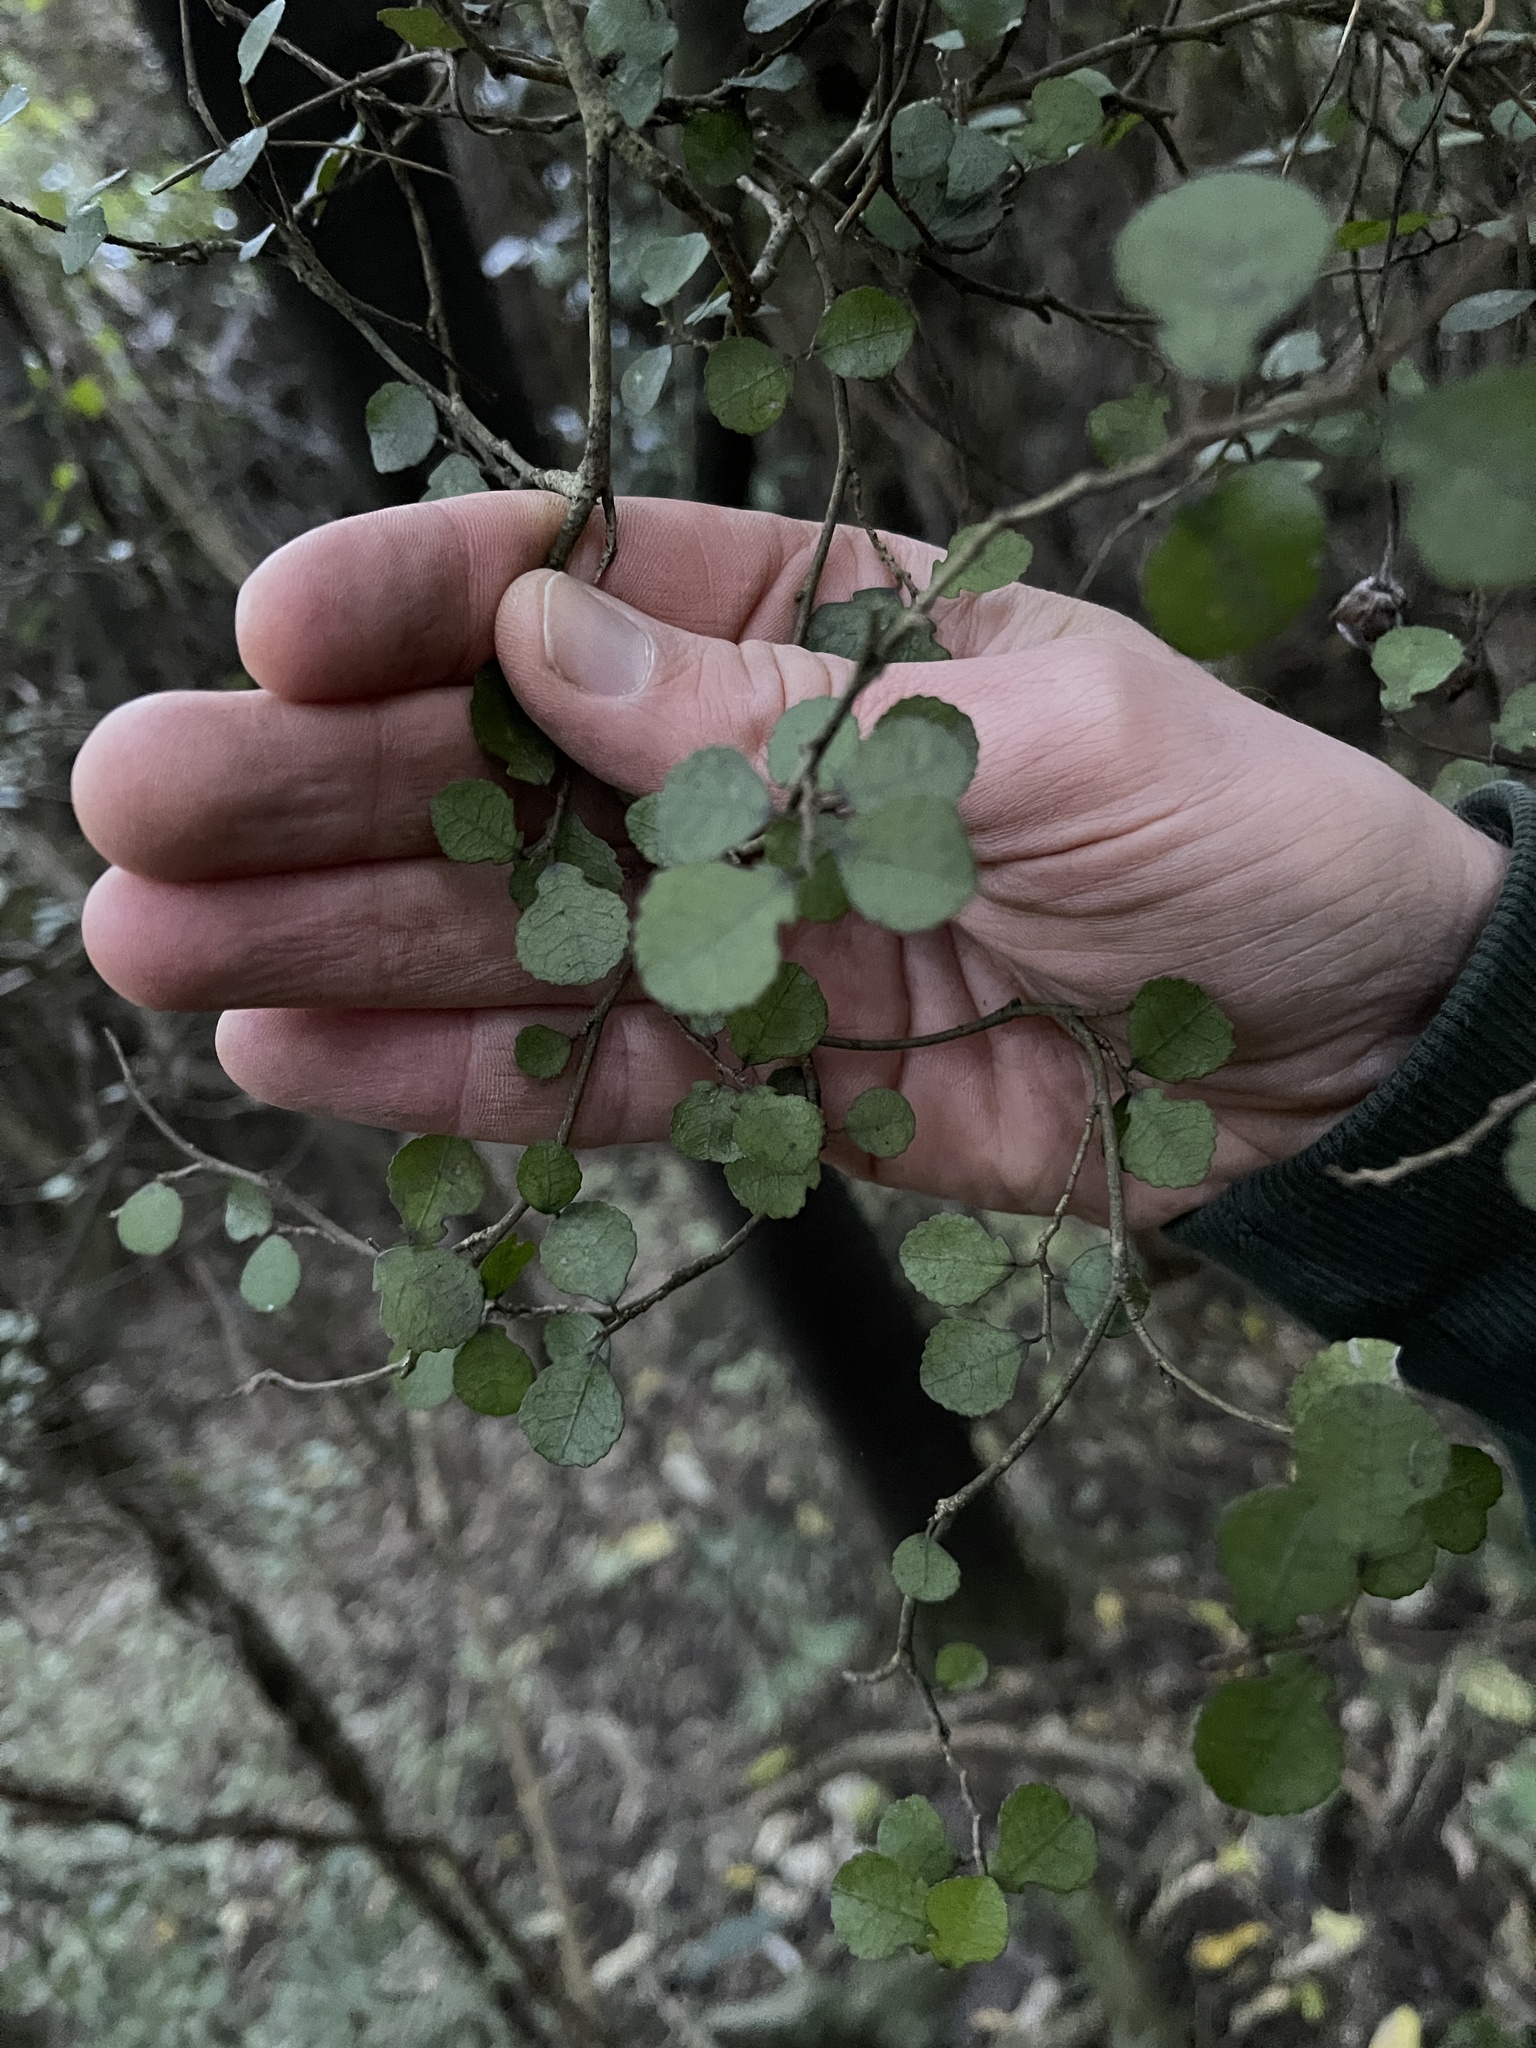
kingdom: Plantae
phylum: Tracheophyta
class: Magnoliopsida
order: Rosales
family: Moraceae
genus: Paratrophis
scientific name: Paratrophis microphylla
